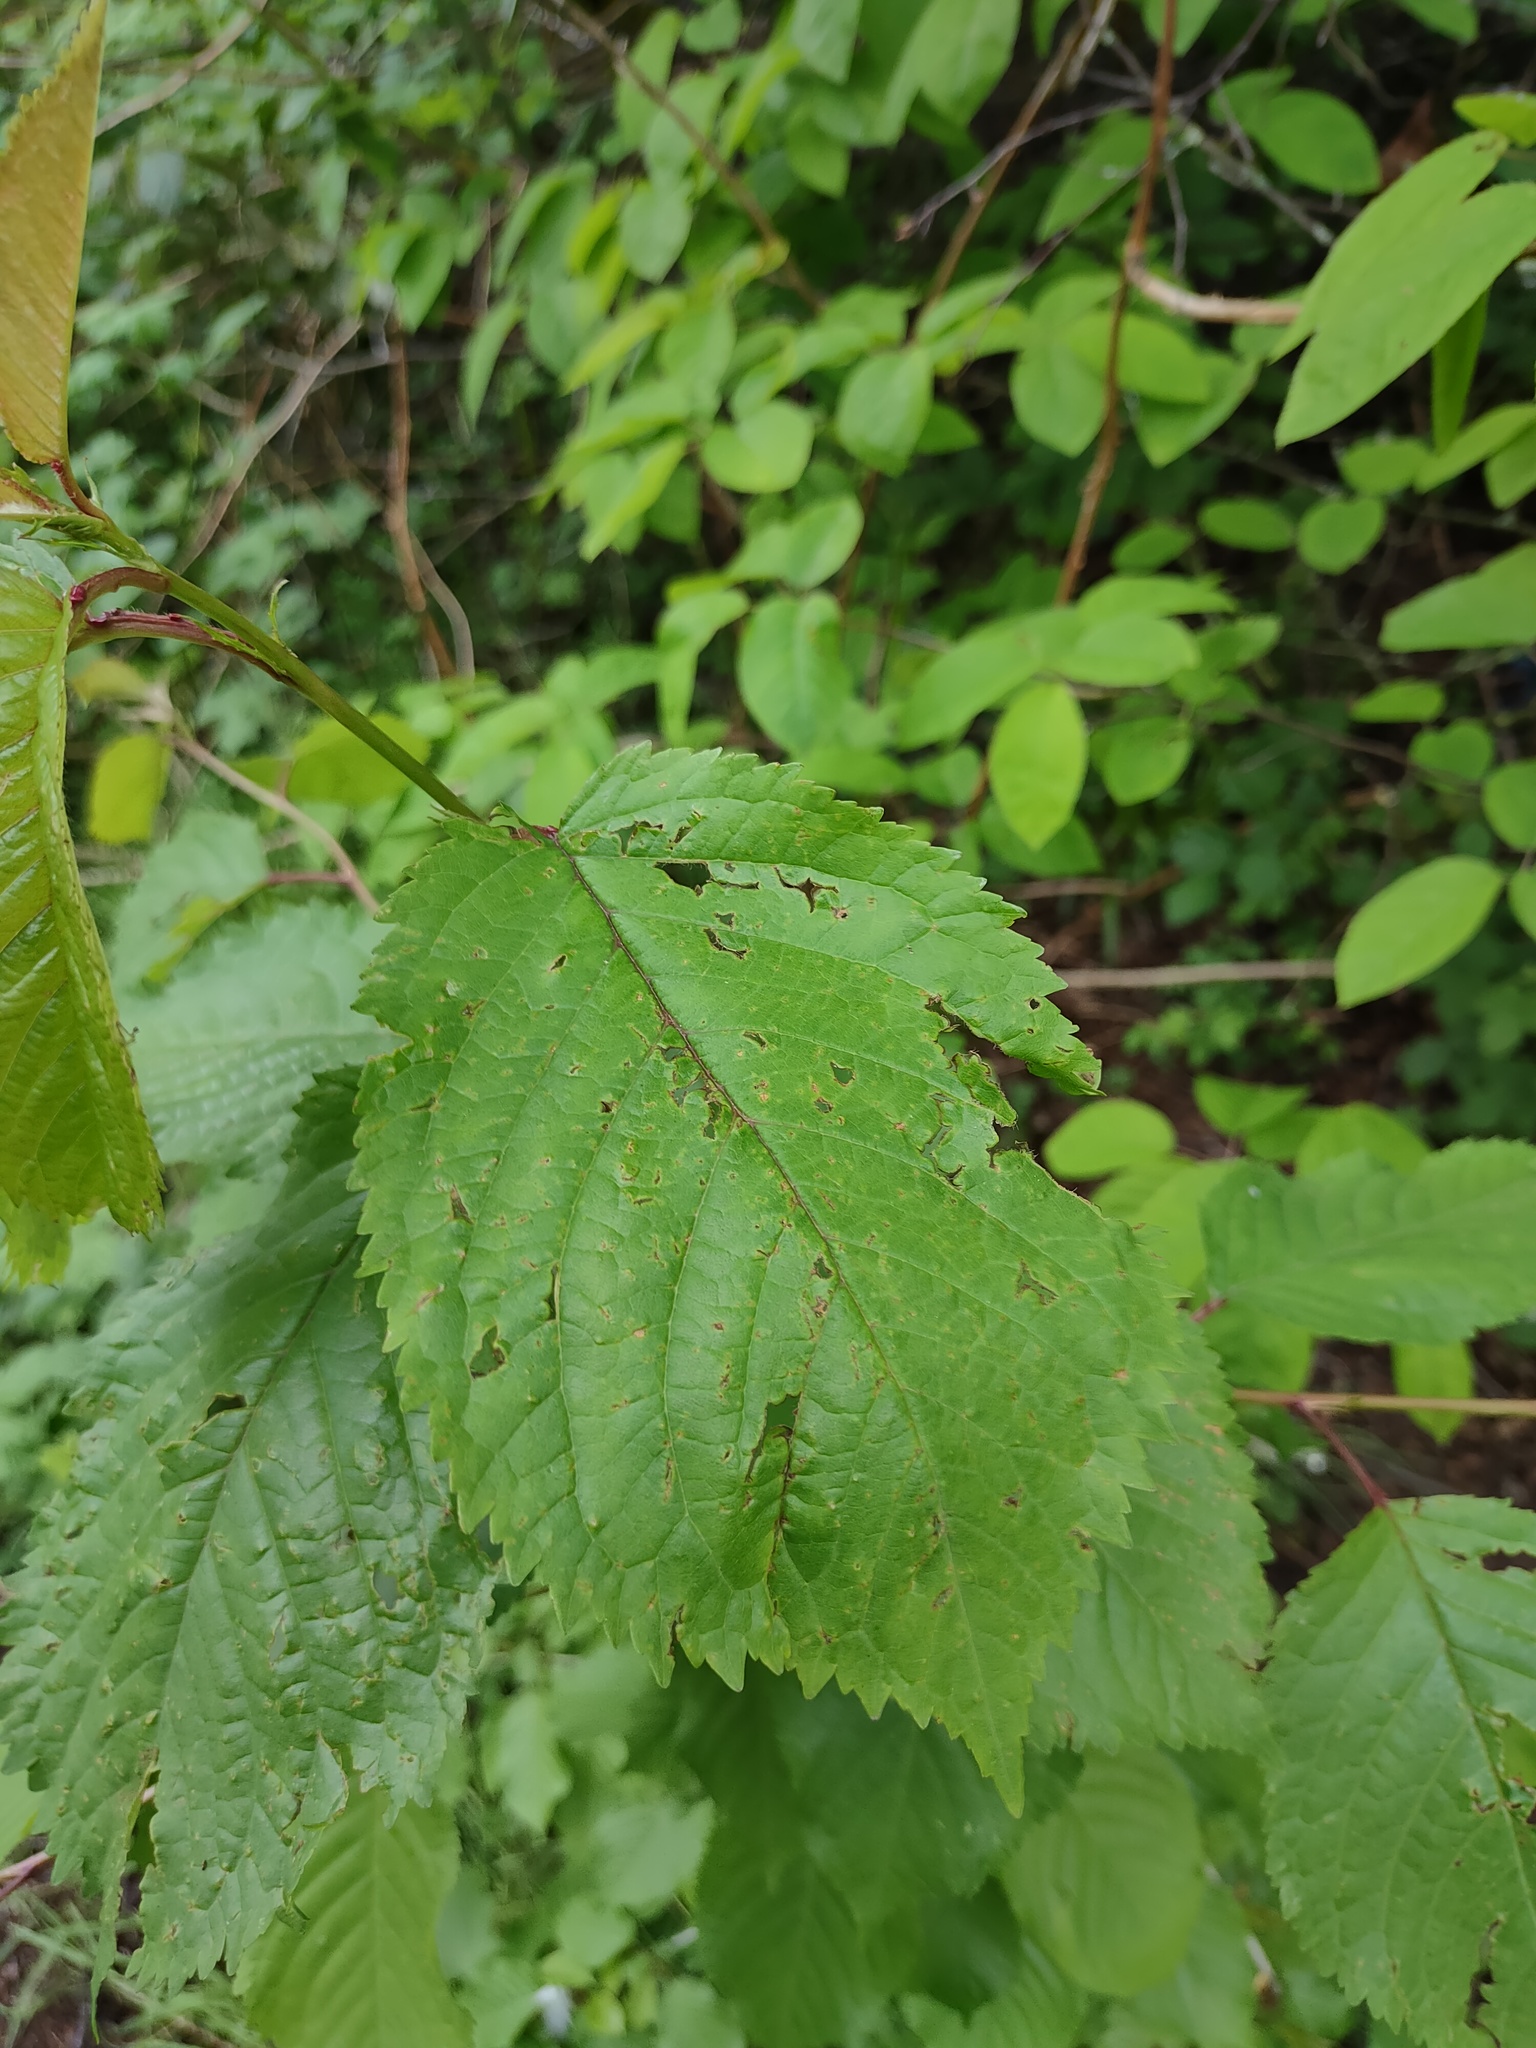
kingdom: Plantae
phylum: Tracheophyta
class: Magnoliopsida
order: Rosales
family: Rosaceae
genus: Prunus
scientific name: Prunus avium
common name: Sweet cherry
